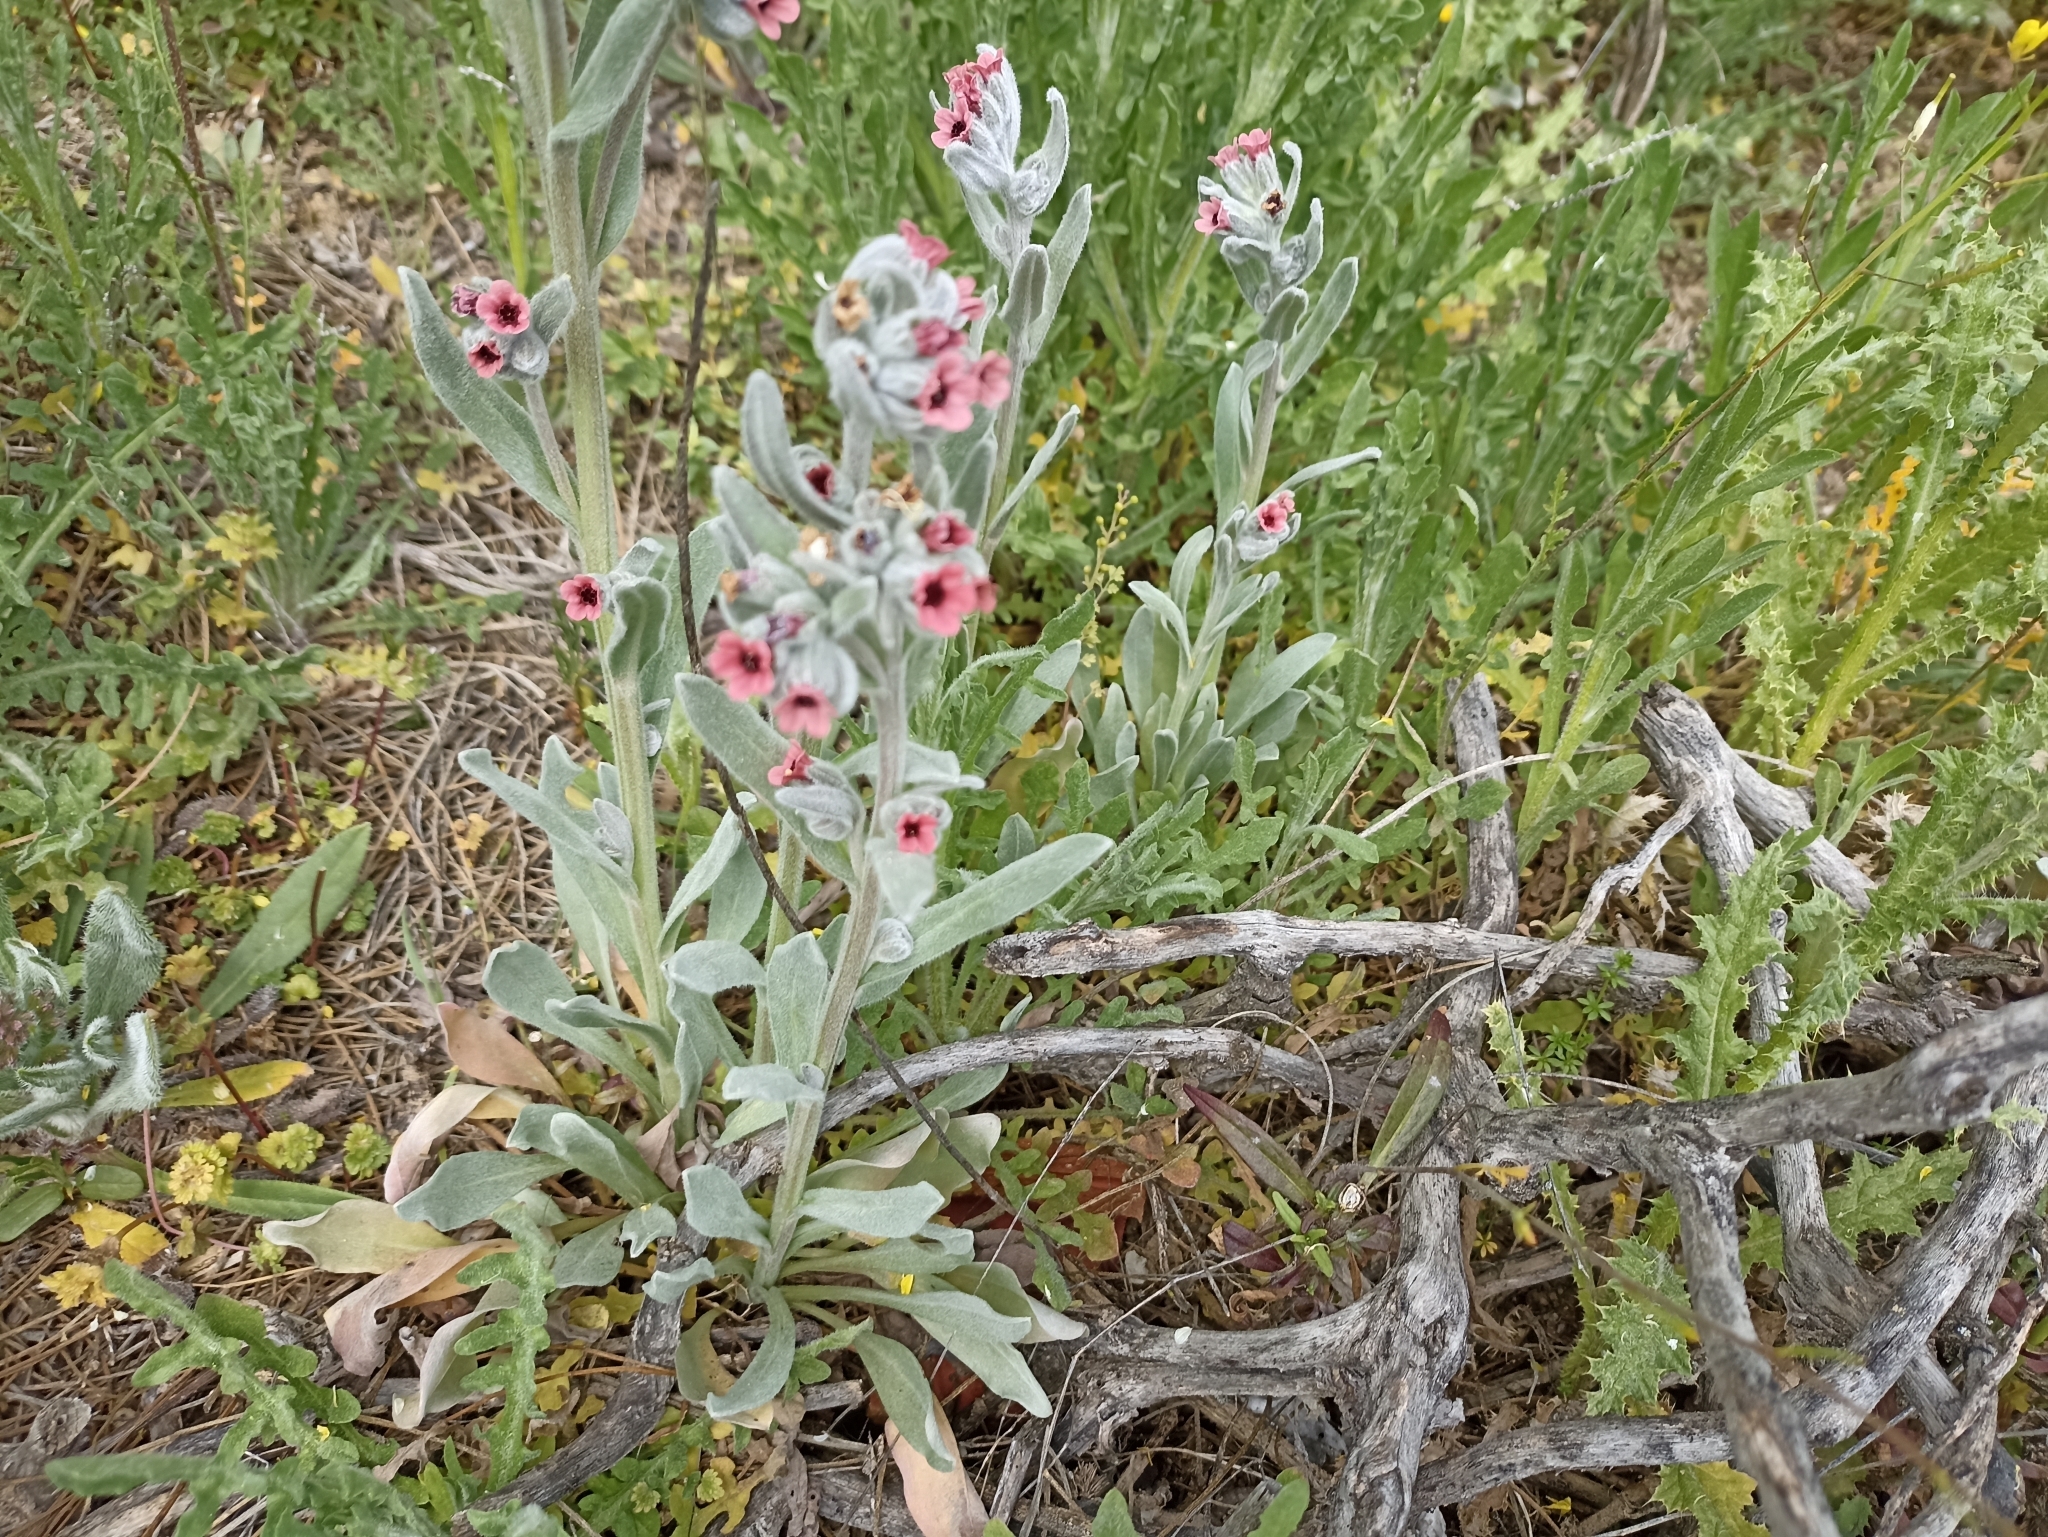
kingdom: Plantae
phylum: Tracheophyta
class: Magnoliopsida
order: Boraginales
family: Boraginaceae
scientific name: Boraginaceae
